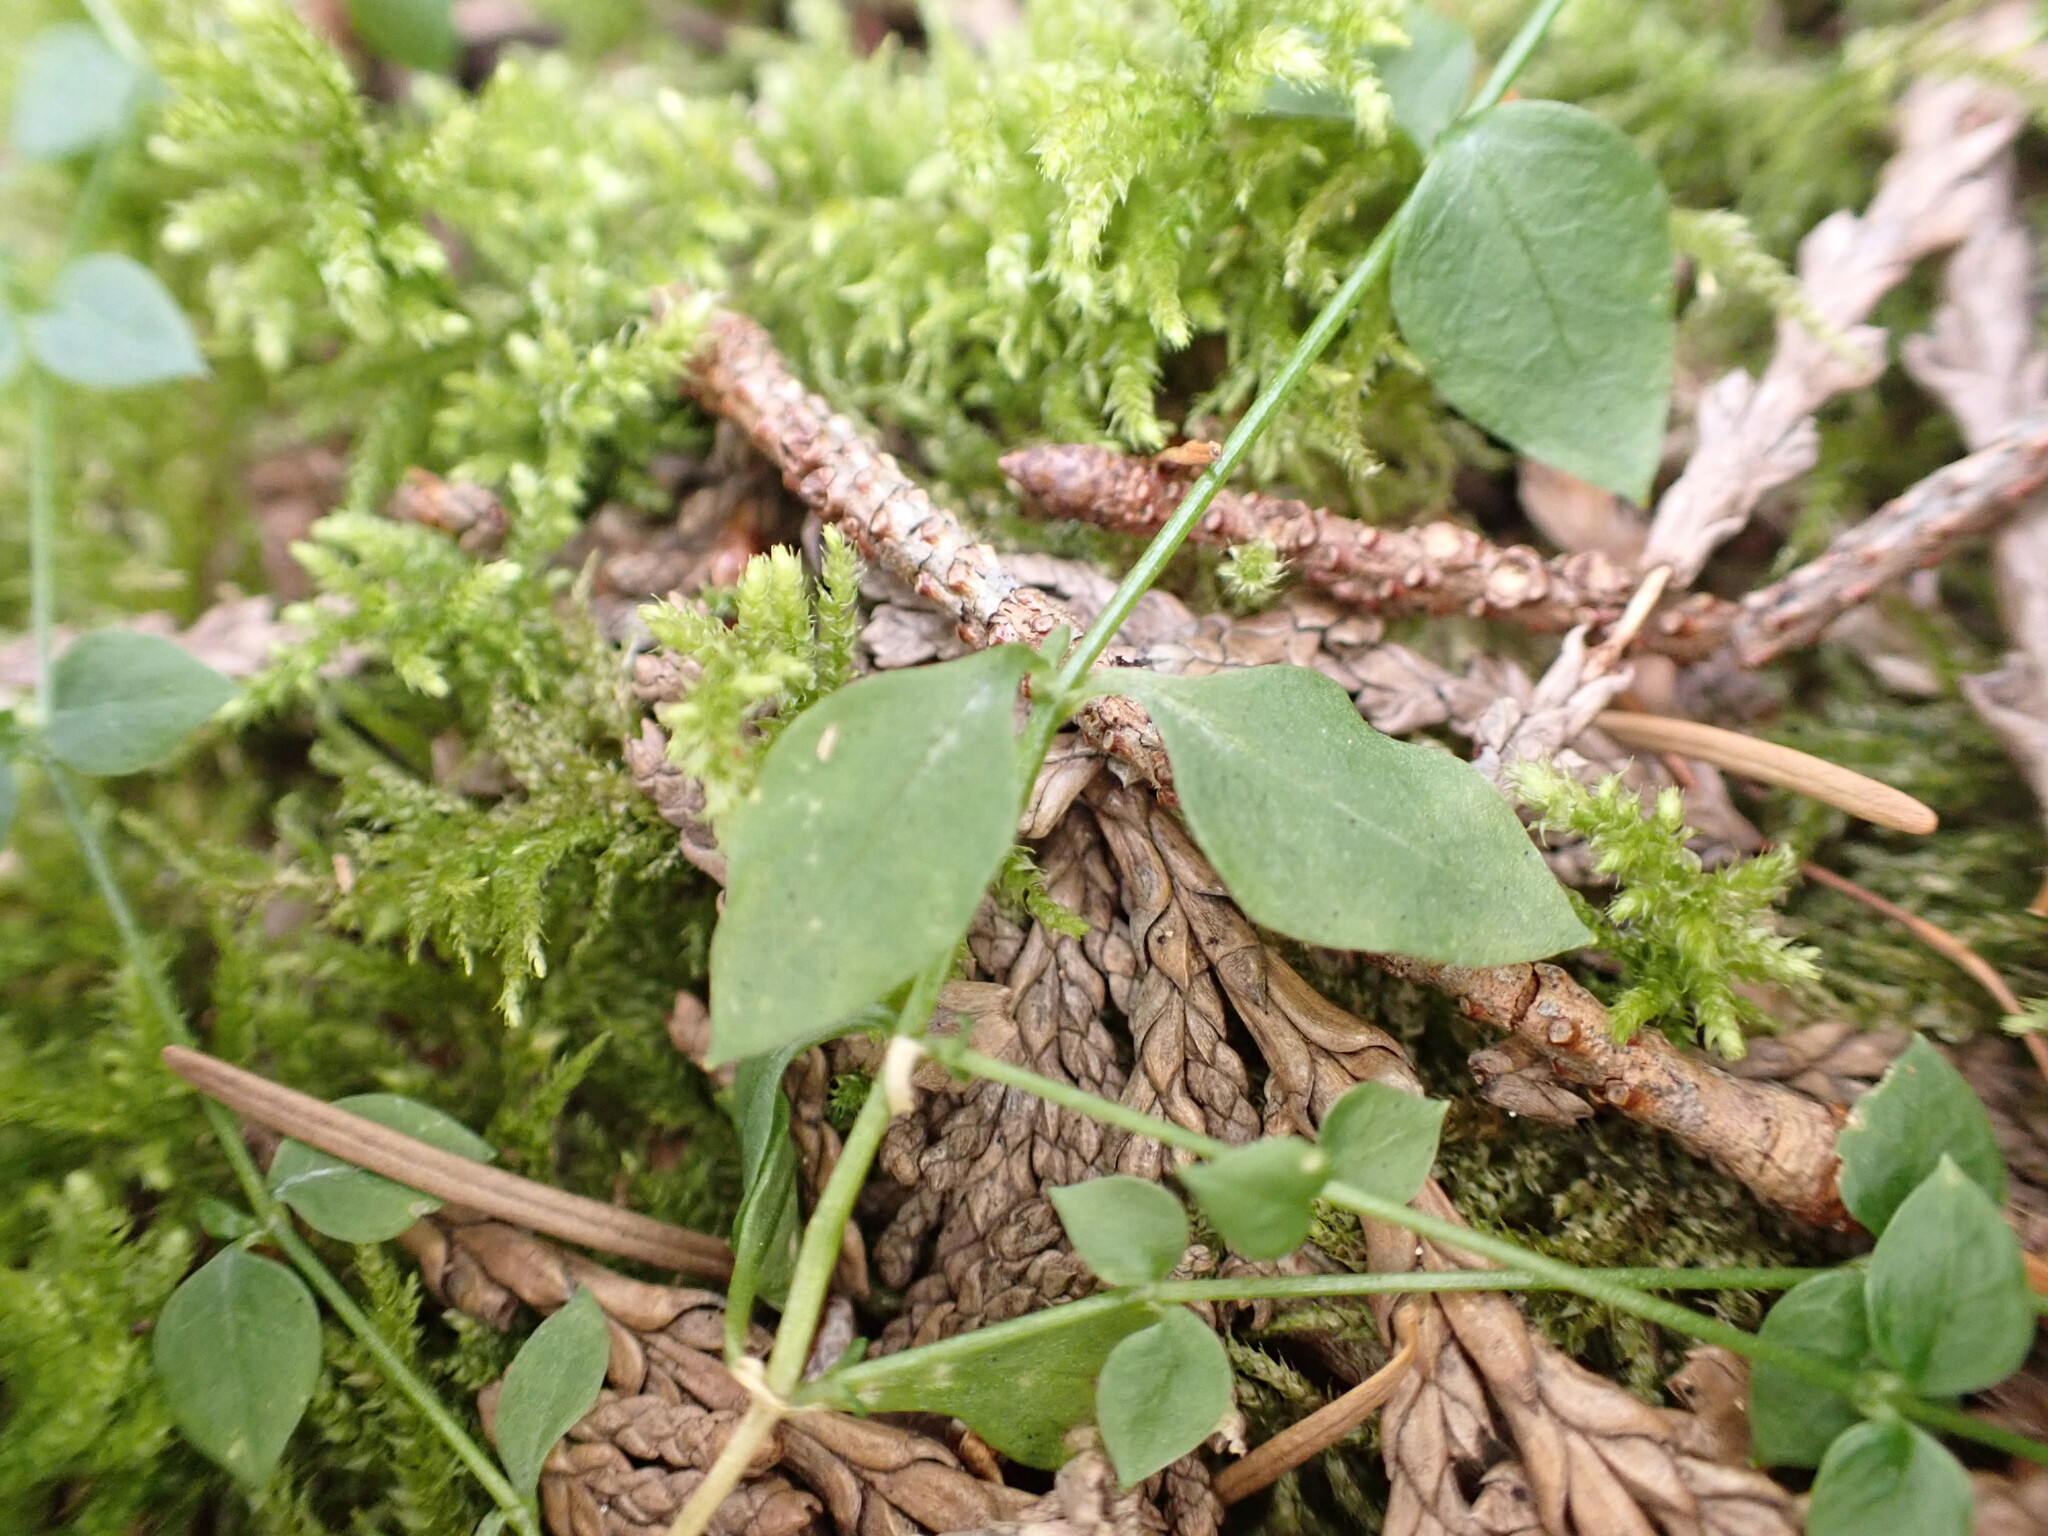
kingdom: Plantae
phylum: Tracheophyta
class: Magnoliopsida
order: Caryophyllales
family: Caryophyllaceae
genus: Stellaria
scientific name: Stellaria crispa
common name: Crimped stitchwort
